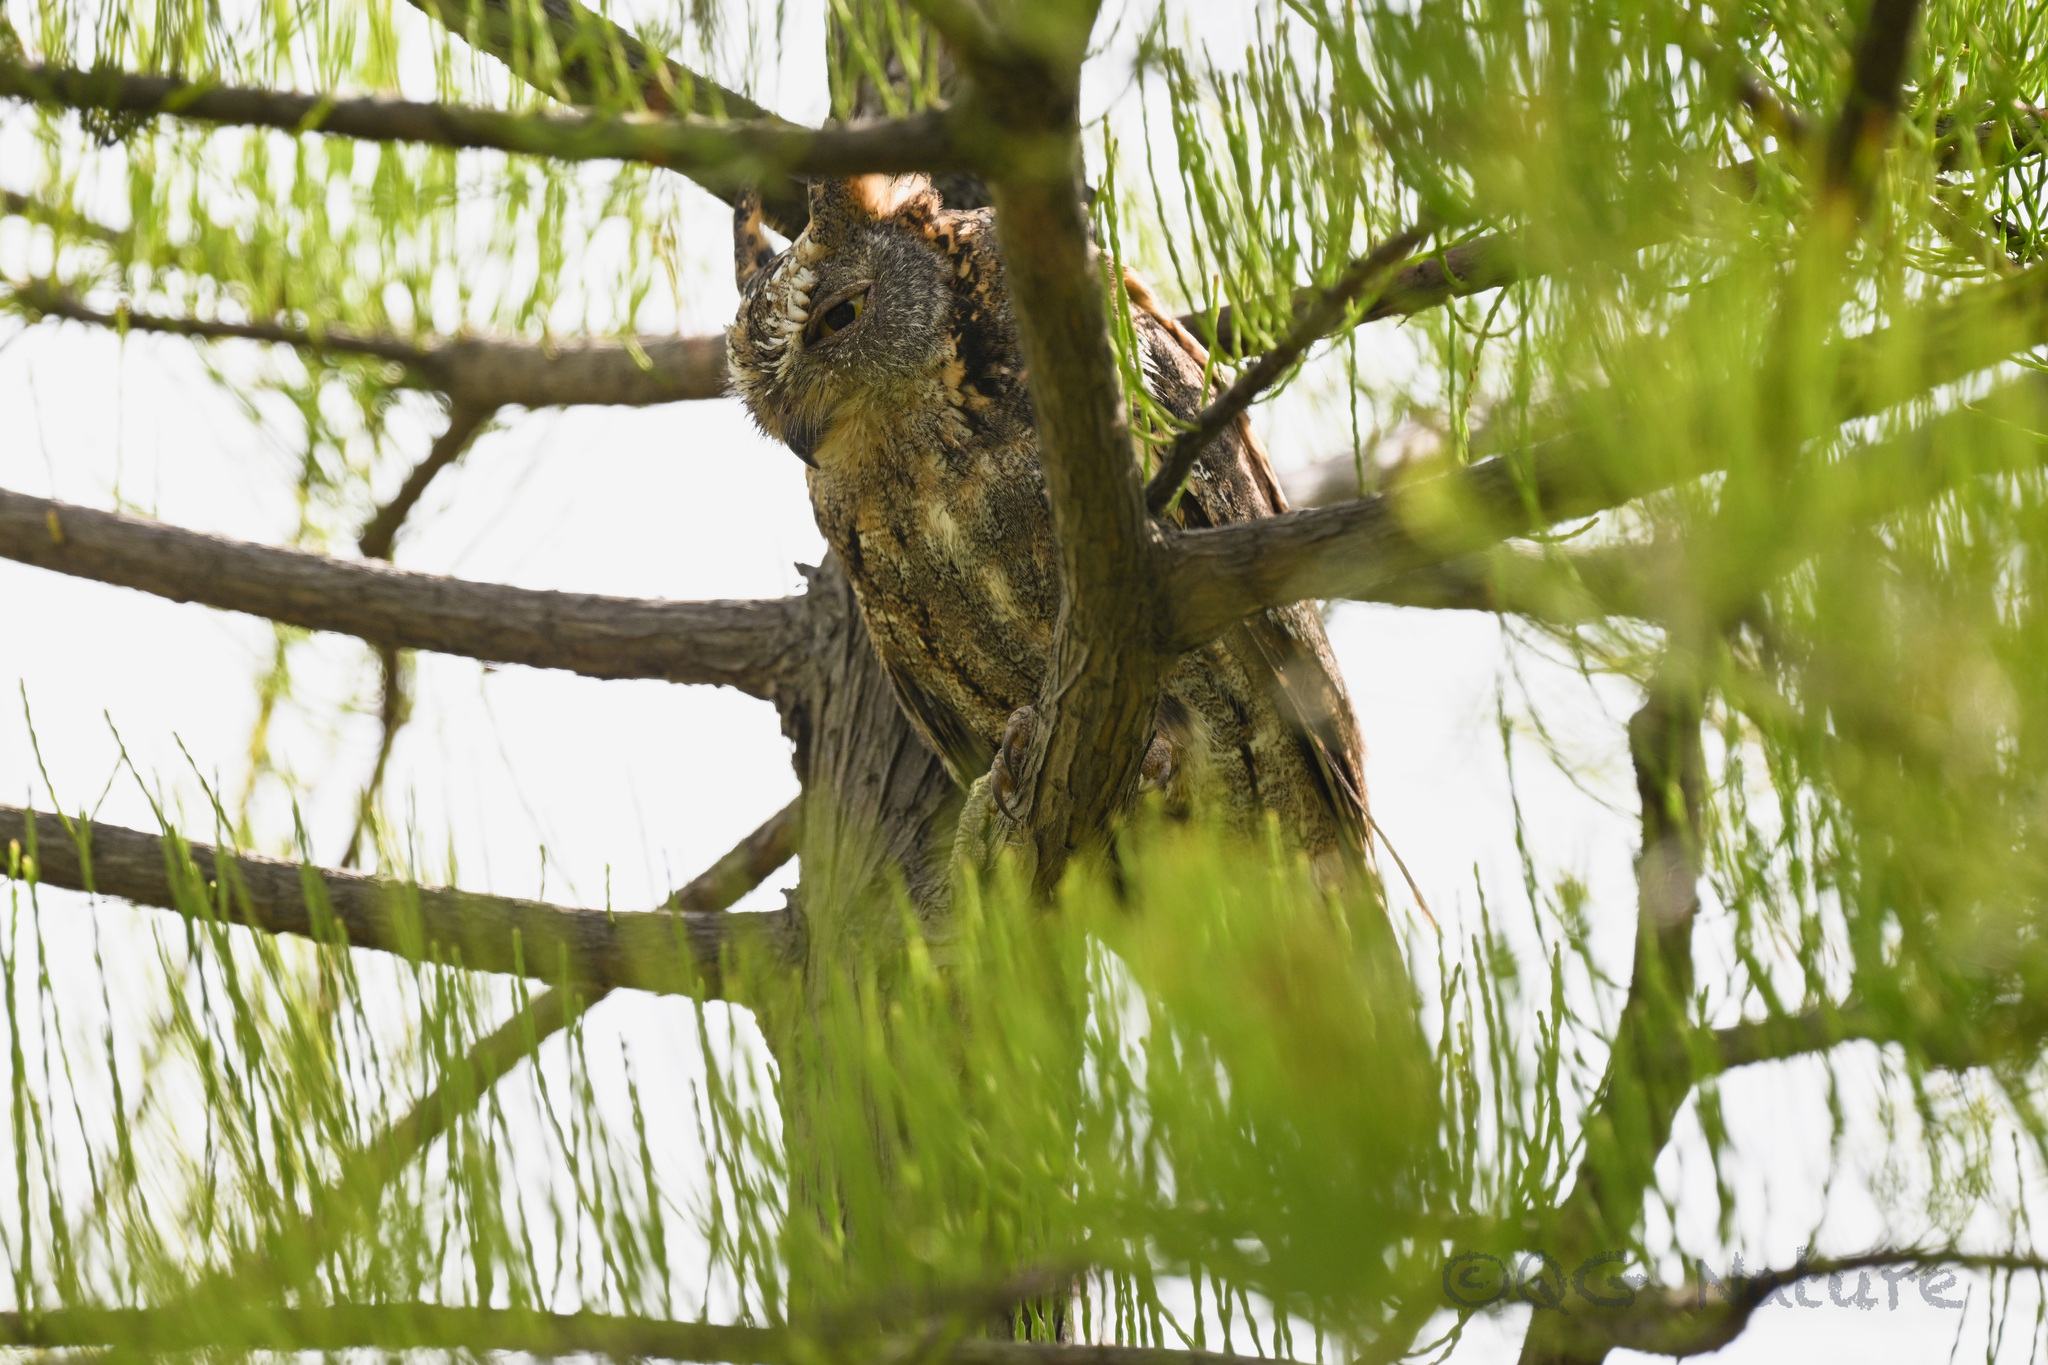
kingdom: Animalia
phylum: Chordata
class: Aves
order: Strigiformes
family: Strigidae
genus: Otus
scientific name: Otus sunia
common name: Oriental scops-owl
